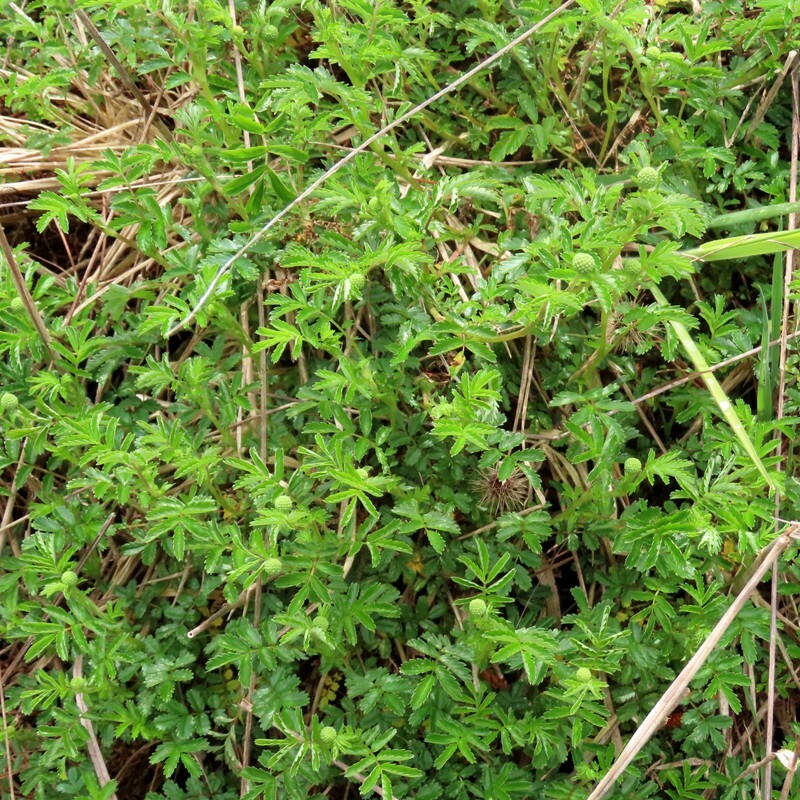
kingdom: Plantae
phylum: Tracheophyta
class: Magnoliopsida
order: Rosales
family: Rosaceae
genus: Acaena
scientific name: Acaena novae-zelandiae
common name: Pirri-pirri-bur
